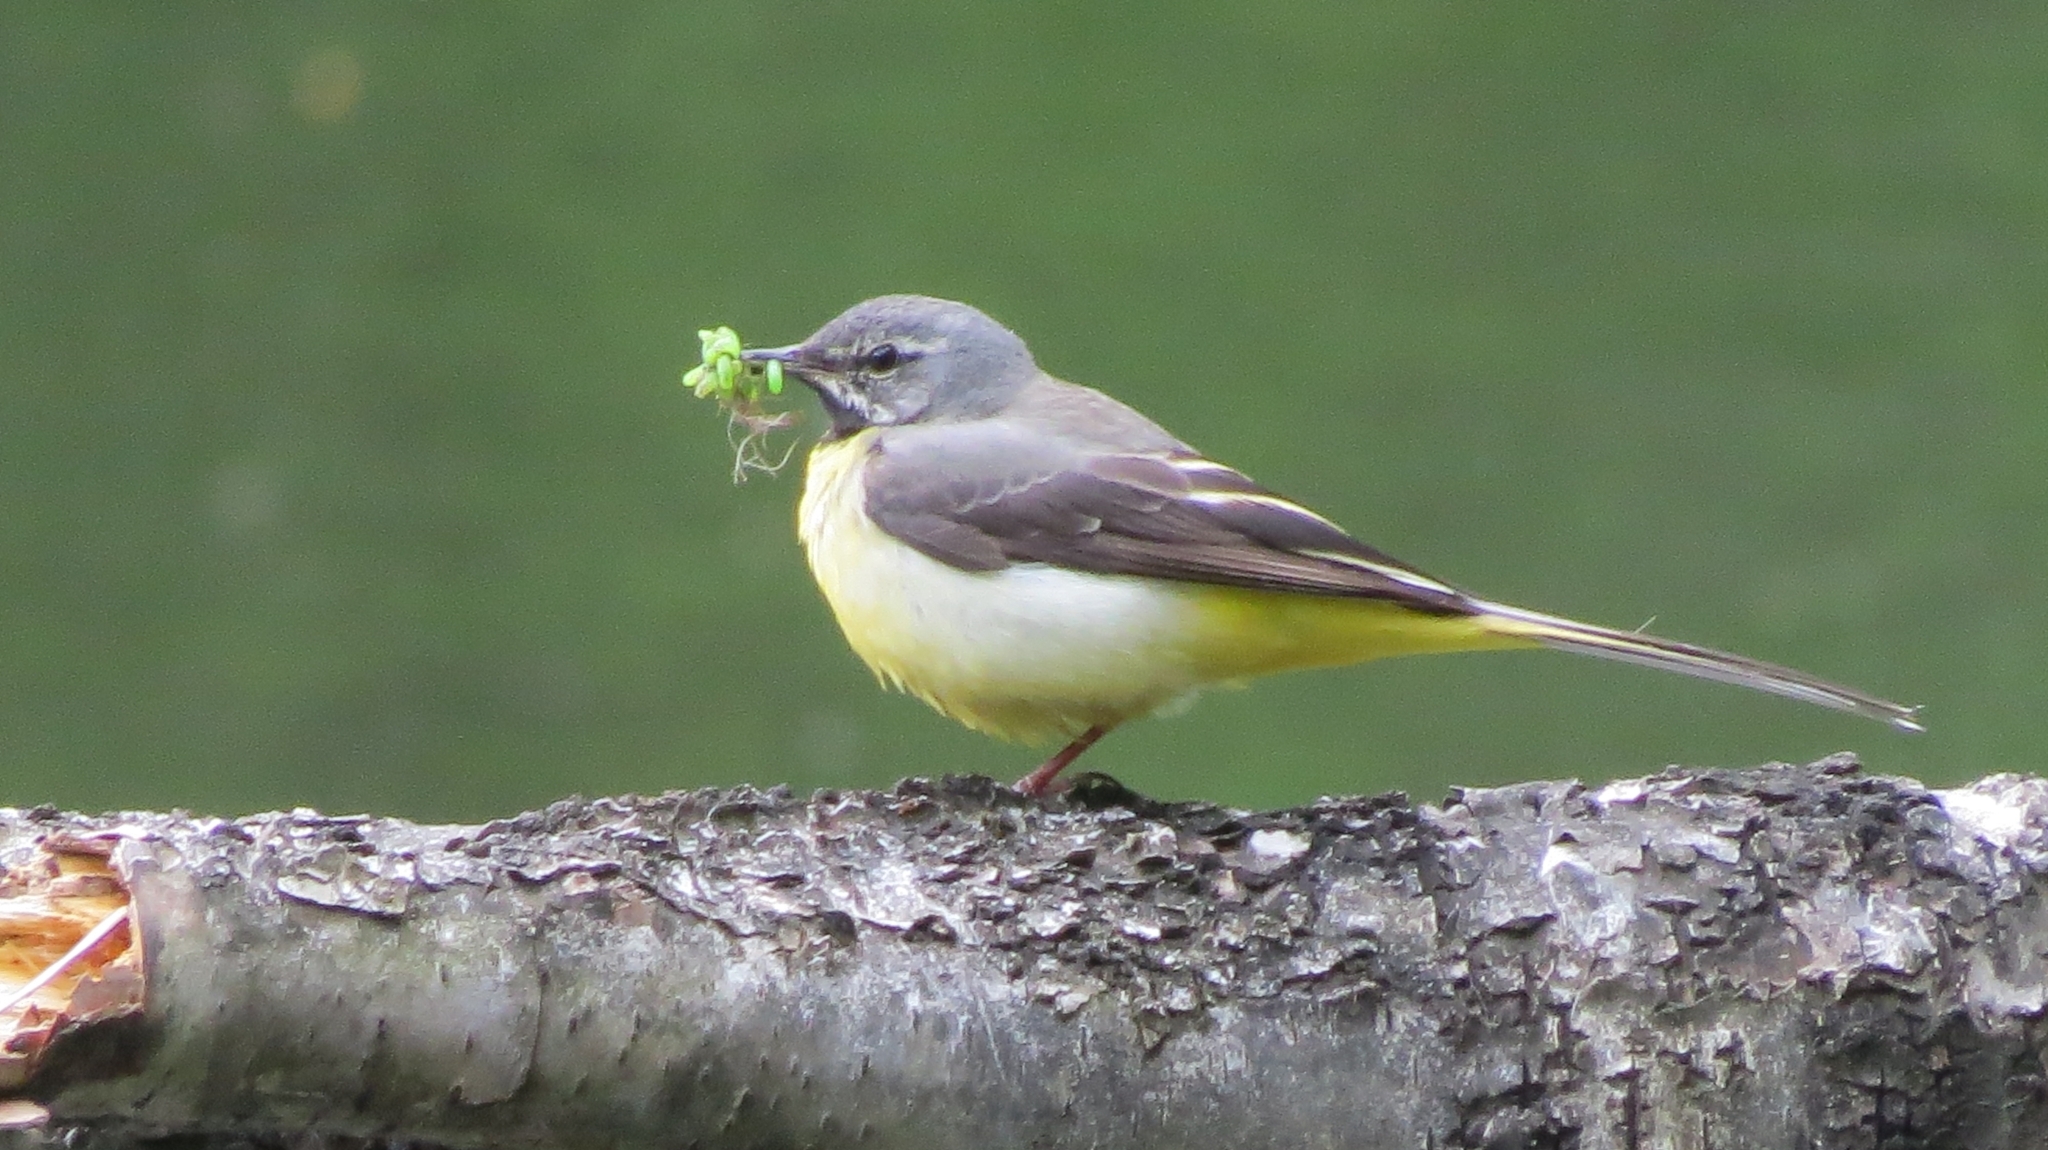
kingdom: Animalia
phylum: Chordata
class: Aves
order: Passeriformes
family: Motacillidae
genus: Motacilla
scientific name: Motacilla cinerea
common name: Grey wagtail
